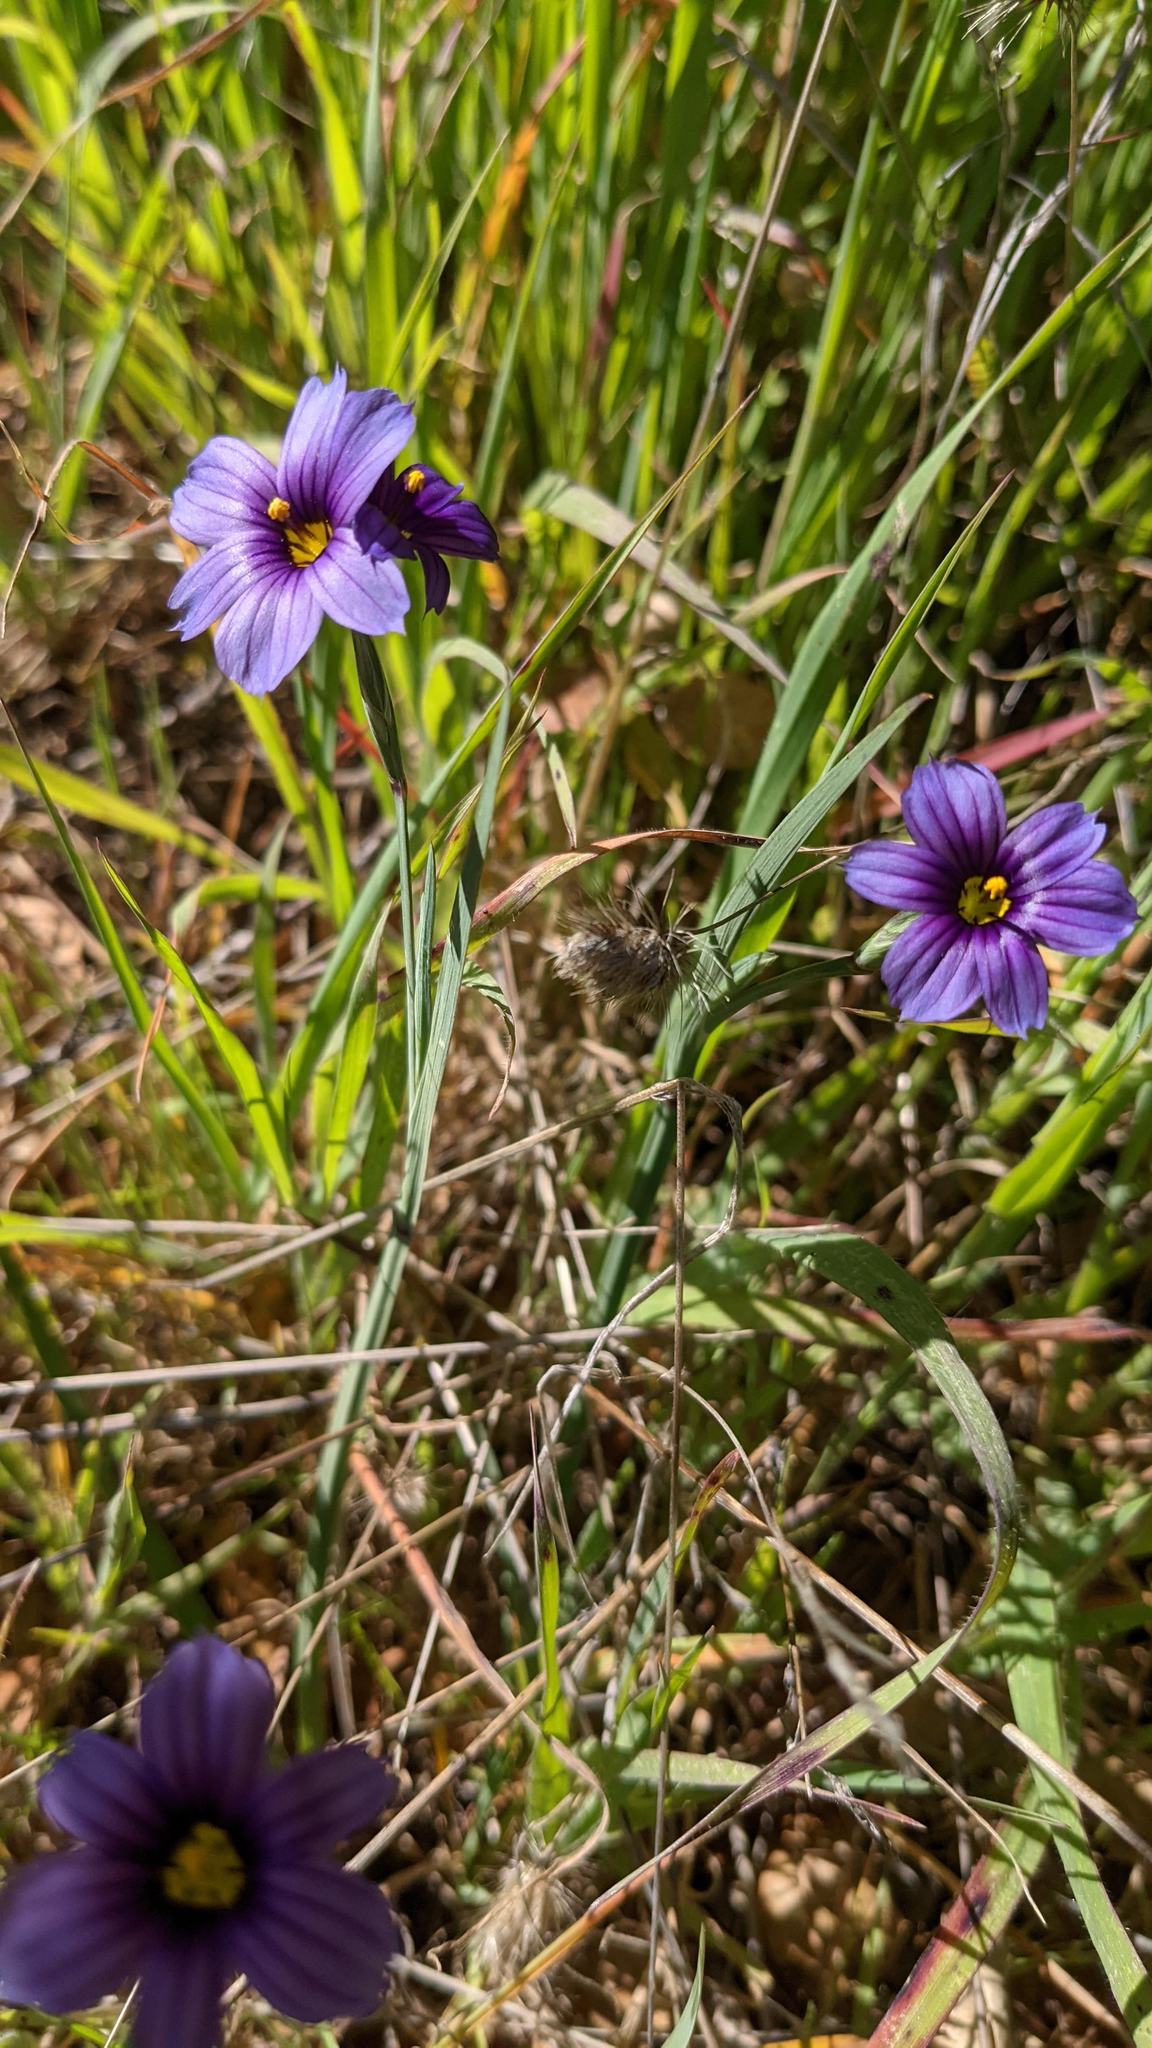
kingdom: Plantae
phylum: Tracheophyta
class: Liliopsida
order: Asparagales
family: Iridaceae
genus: Sisyrinchium
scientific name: Sisyrinchium bellum
